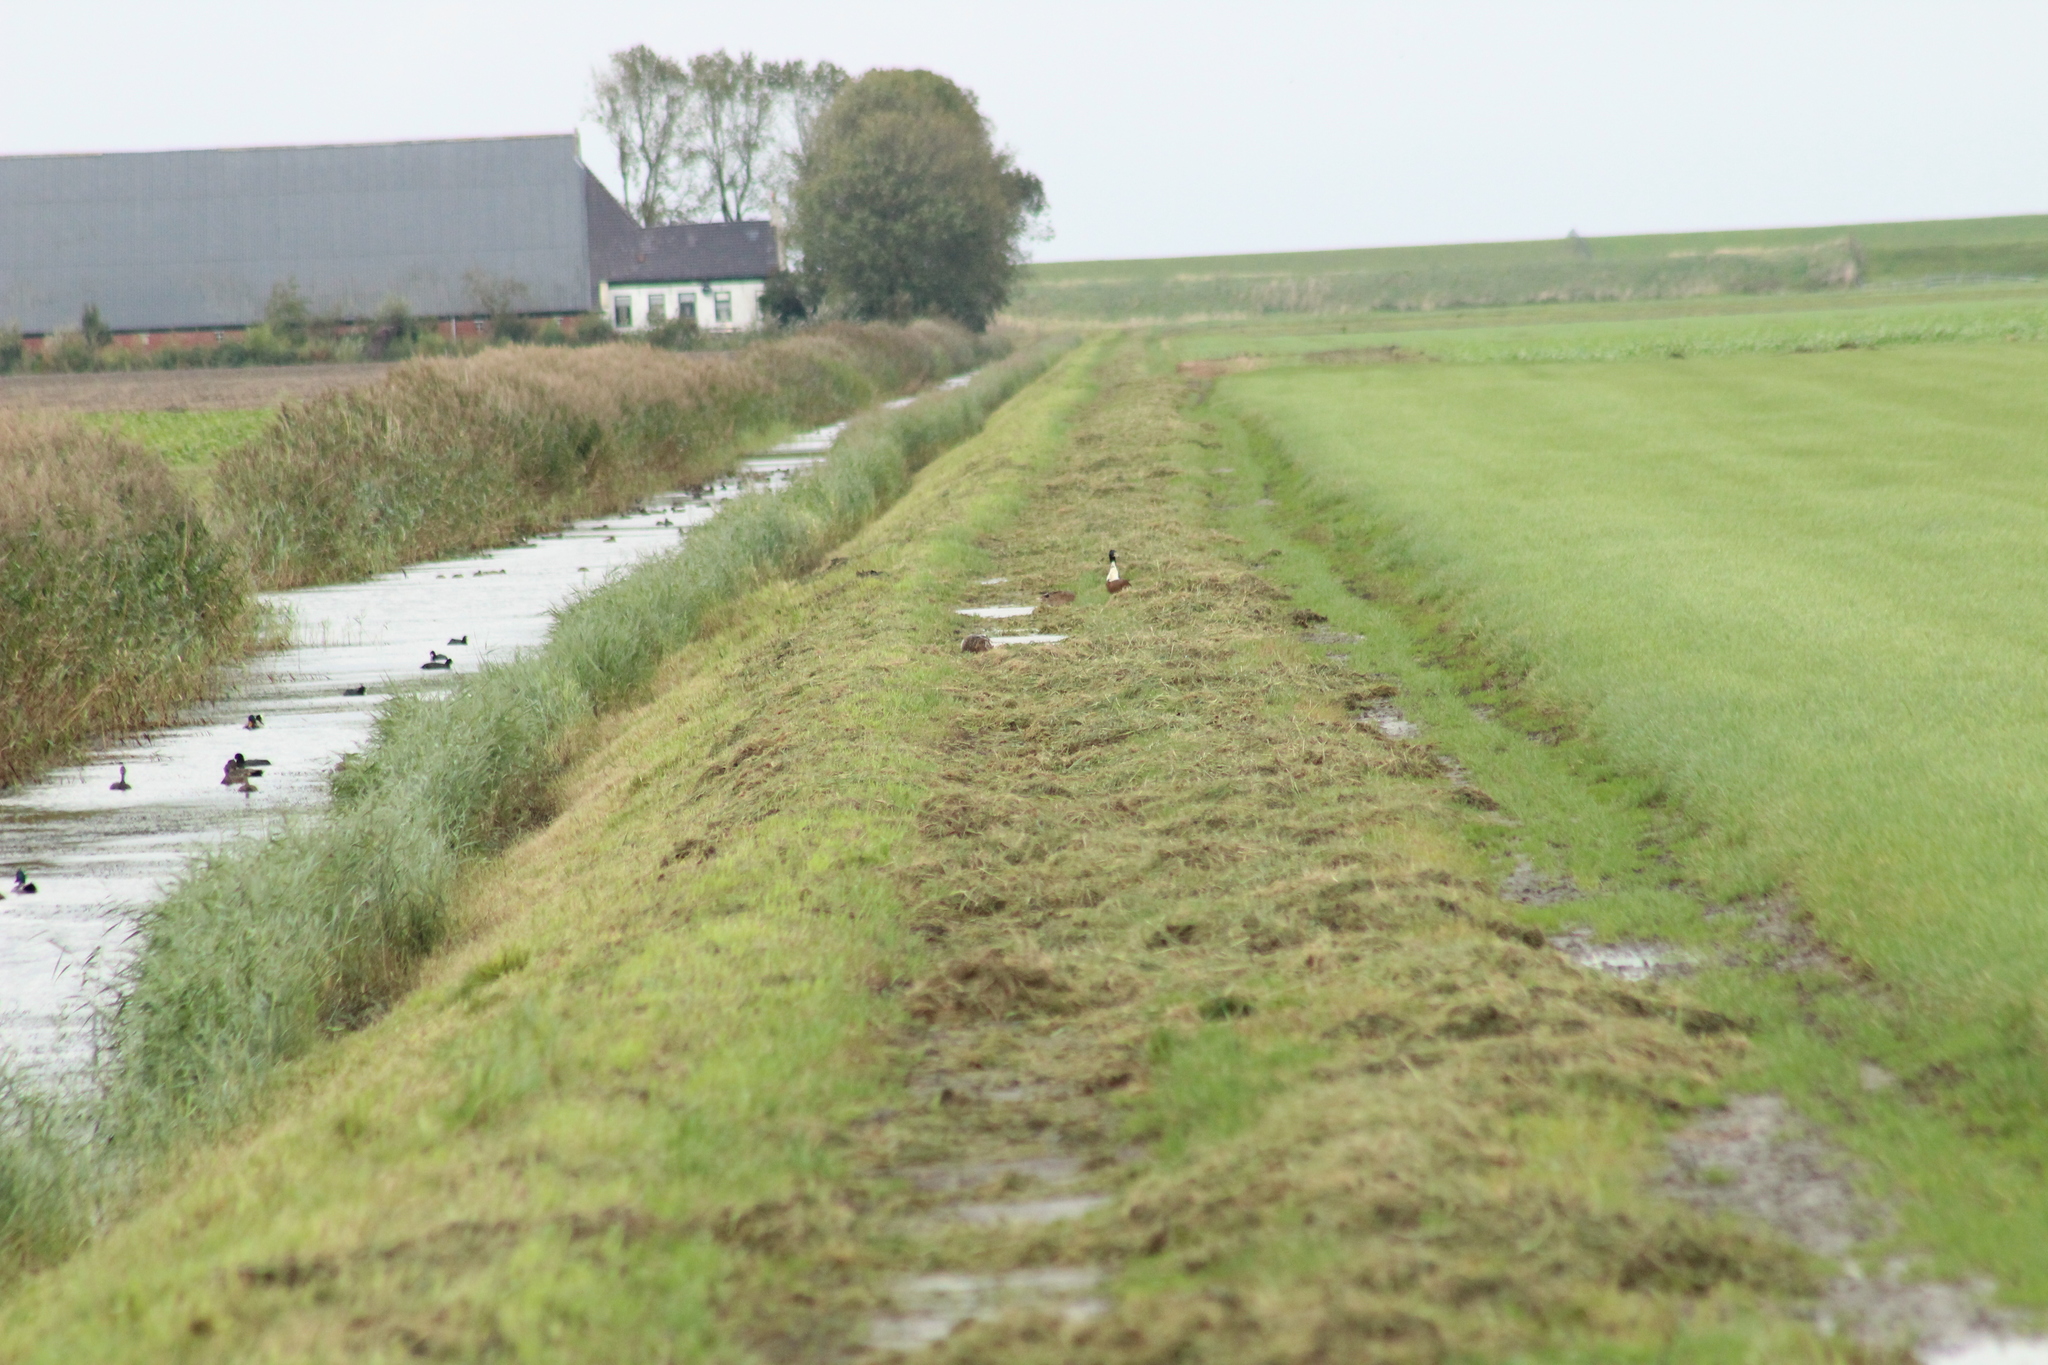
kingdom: Animalia
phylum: Chordata
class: Aves
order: Anseriformes
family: Anatidae
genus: Anas
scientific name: Anas platyrhynchos
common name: Mallard
